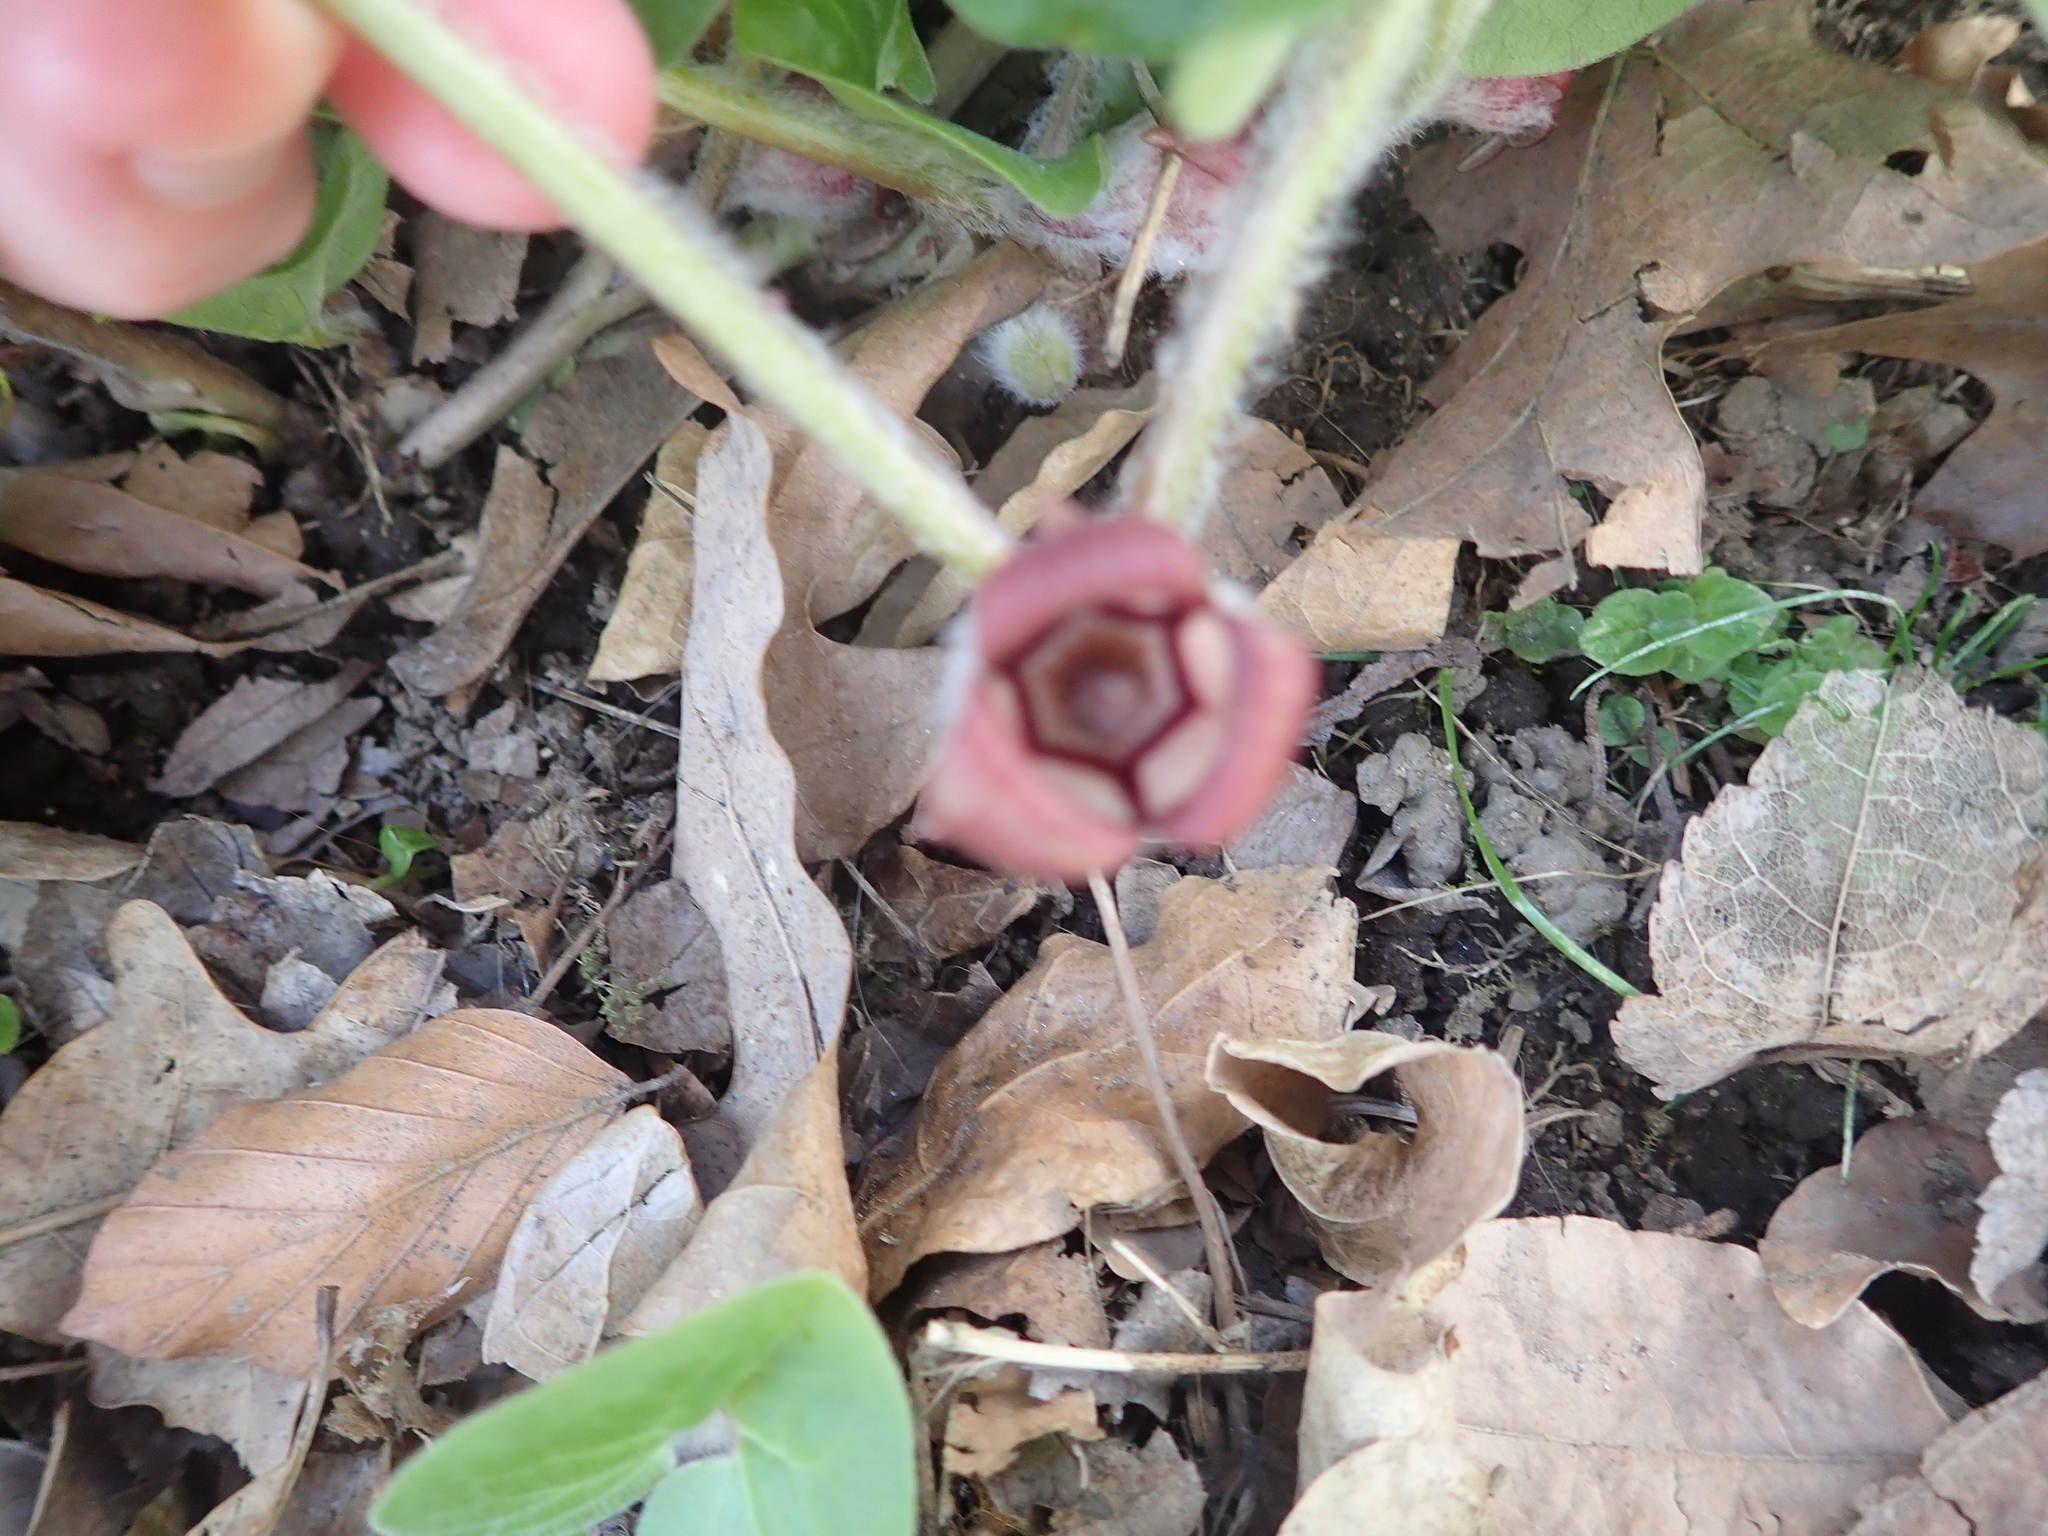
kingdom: Plantae
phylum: Tracheophyta
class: Magnoliopsida
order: Piperales
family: Aristolochiaceae
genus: Asarum
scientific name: Asarum canadense
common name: Wild ginger
